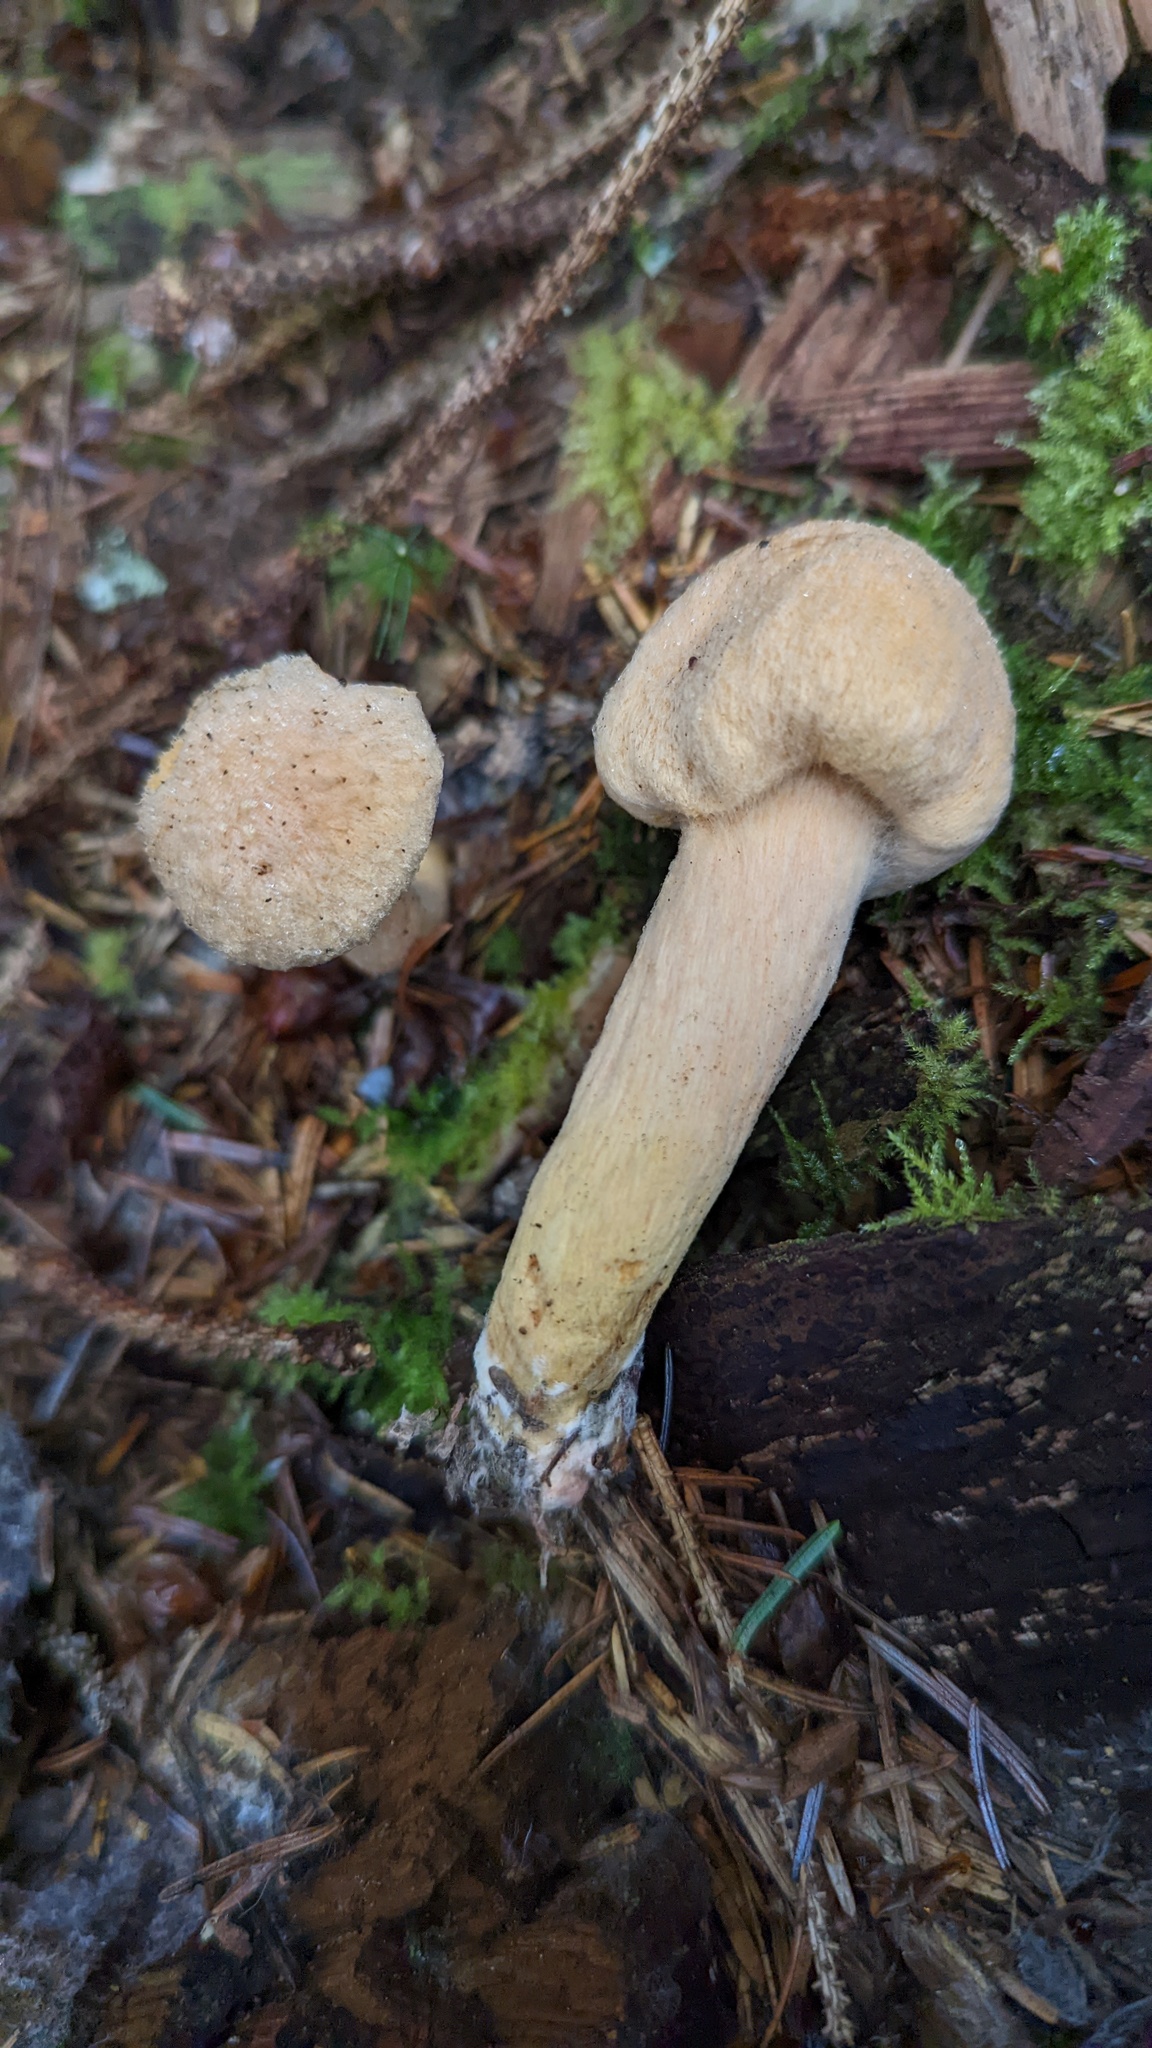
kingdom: Fungi
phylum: Basidiomycota
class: Agaricomycetes
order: Boletales
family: Gomphidiaceae
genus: Chroogomphus
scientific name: Chroogomphus tomentosus
